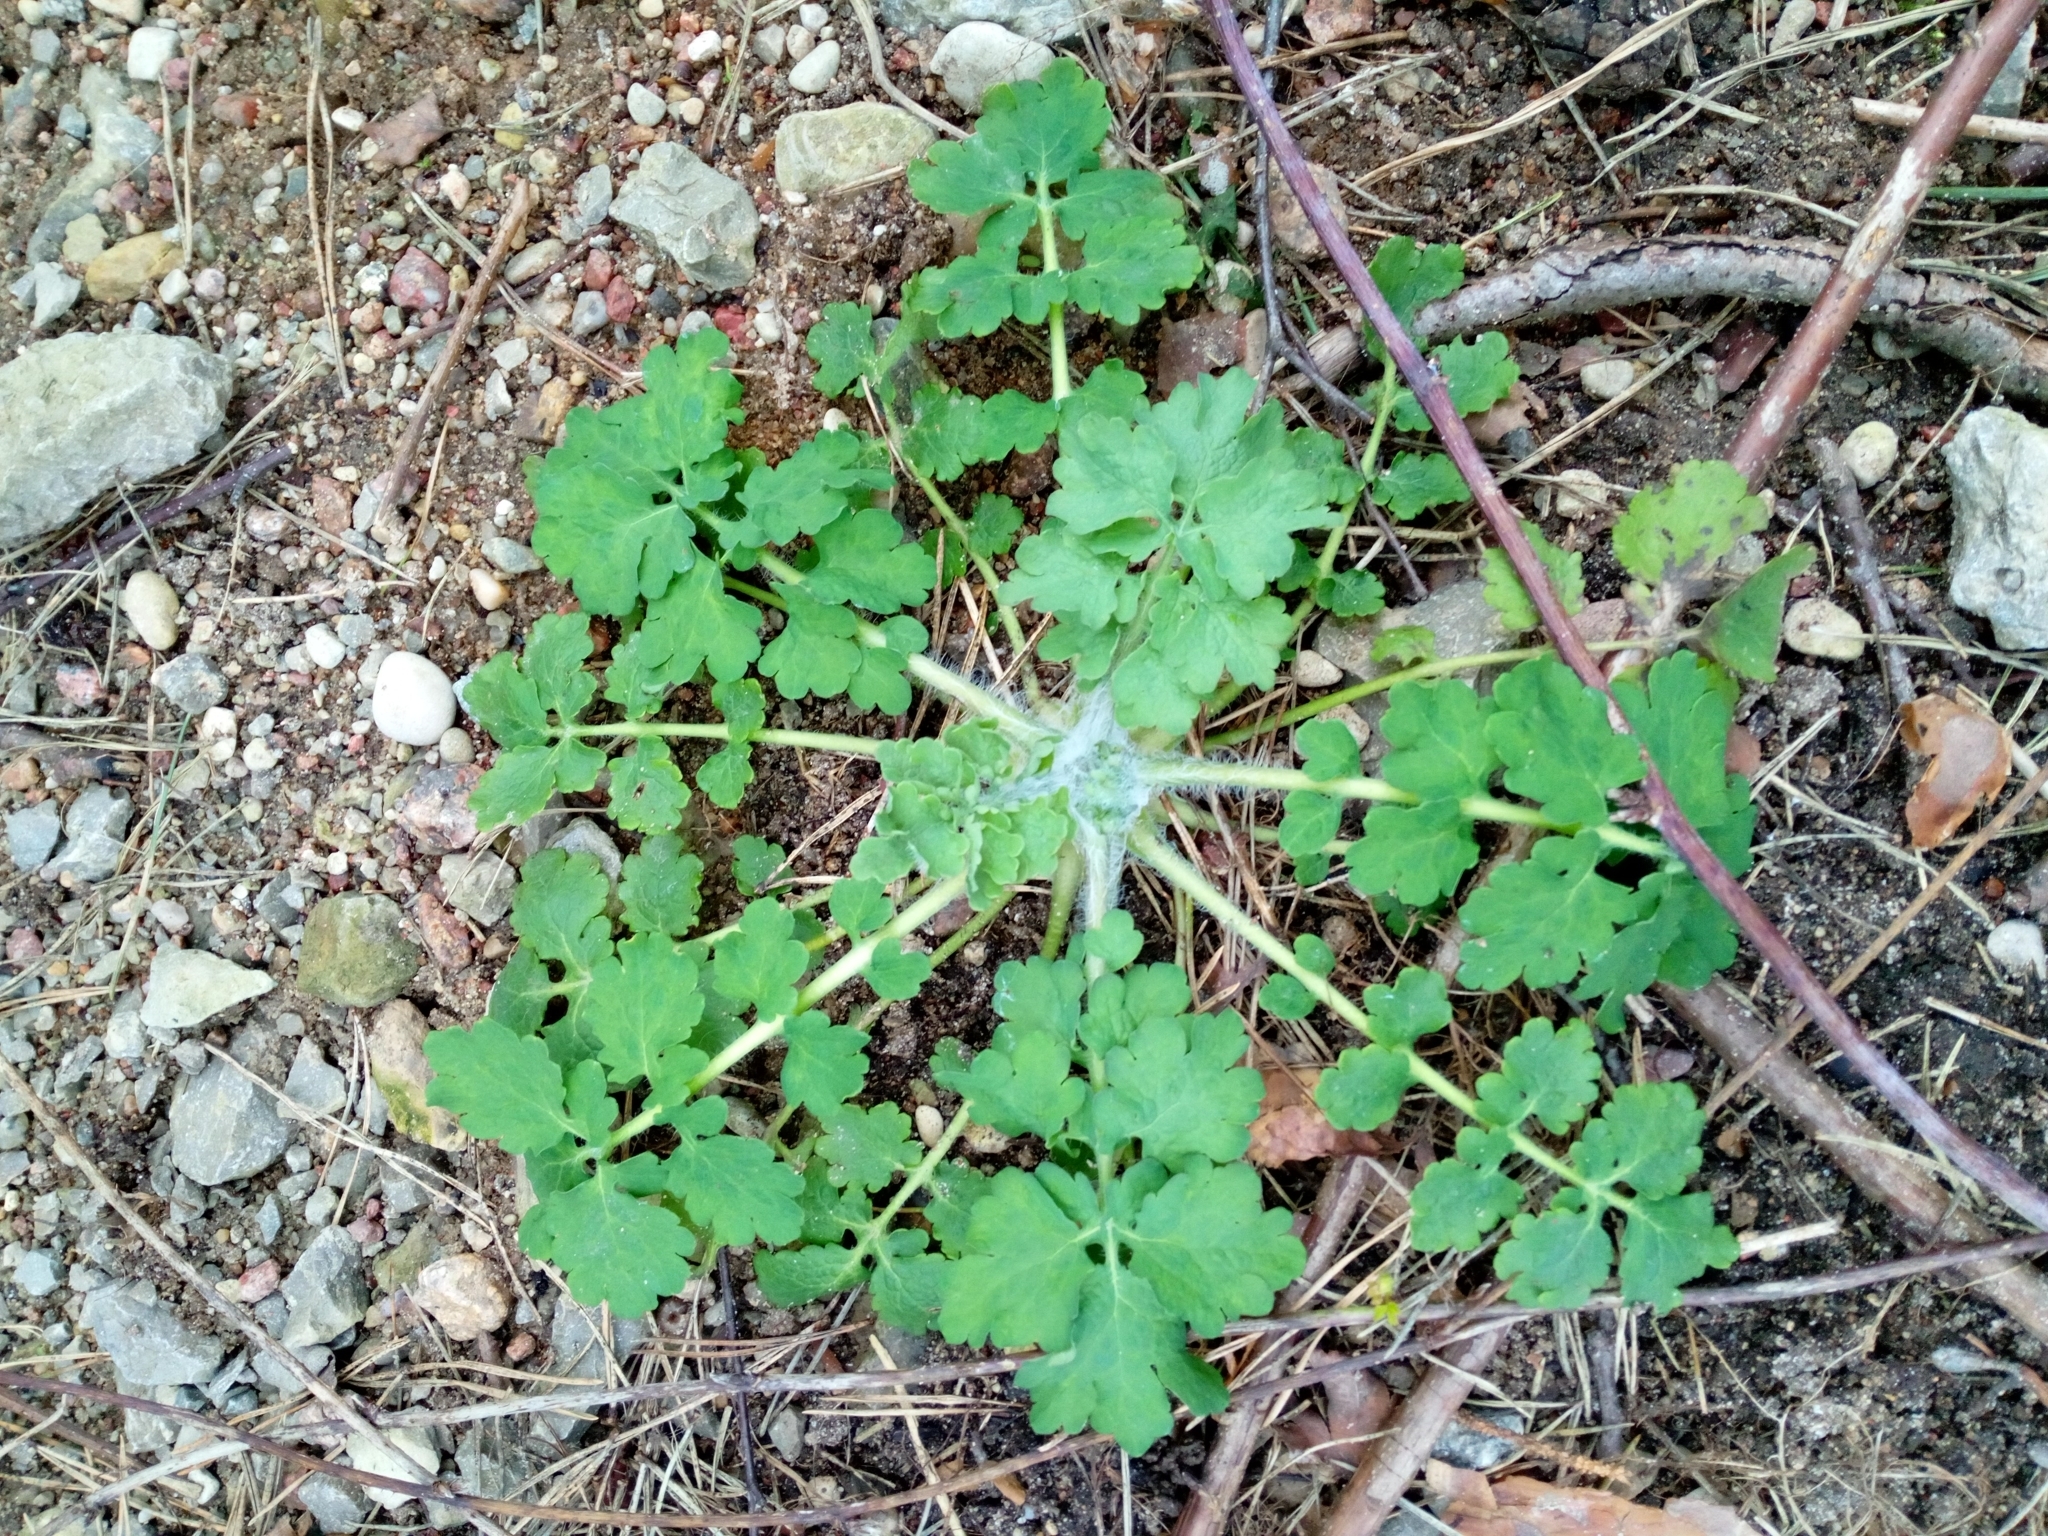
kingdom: Plantae
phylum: Tracheophyta
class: Magnoliopsida
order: Ranunculales
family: Papaveraceae
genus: Chelidonium
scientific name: Chelidonium majus
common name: Greater celandine
